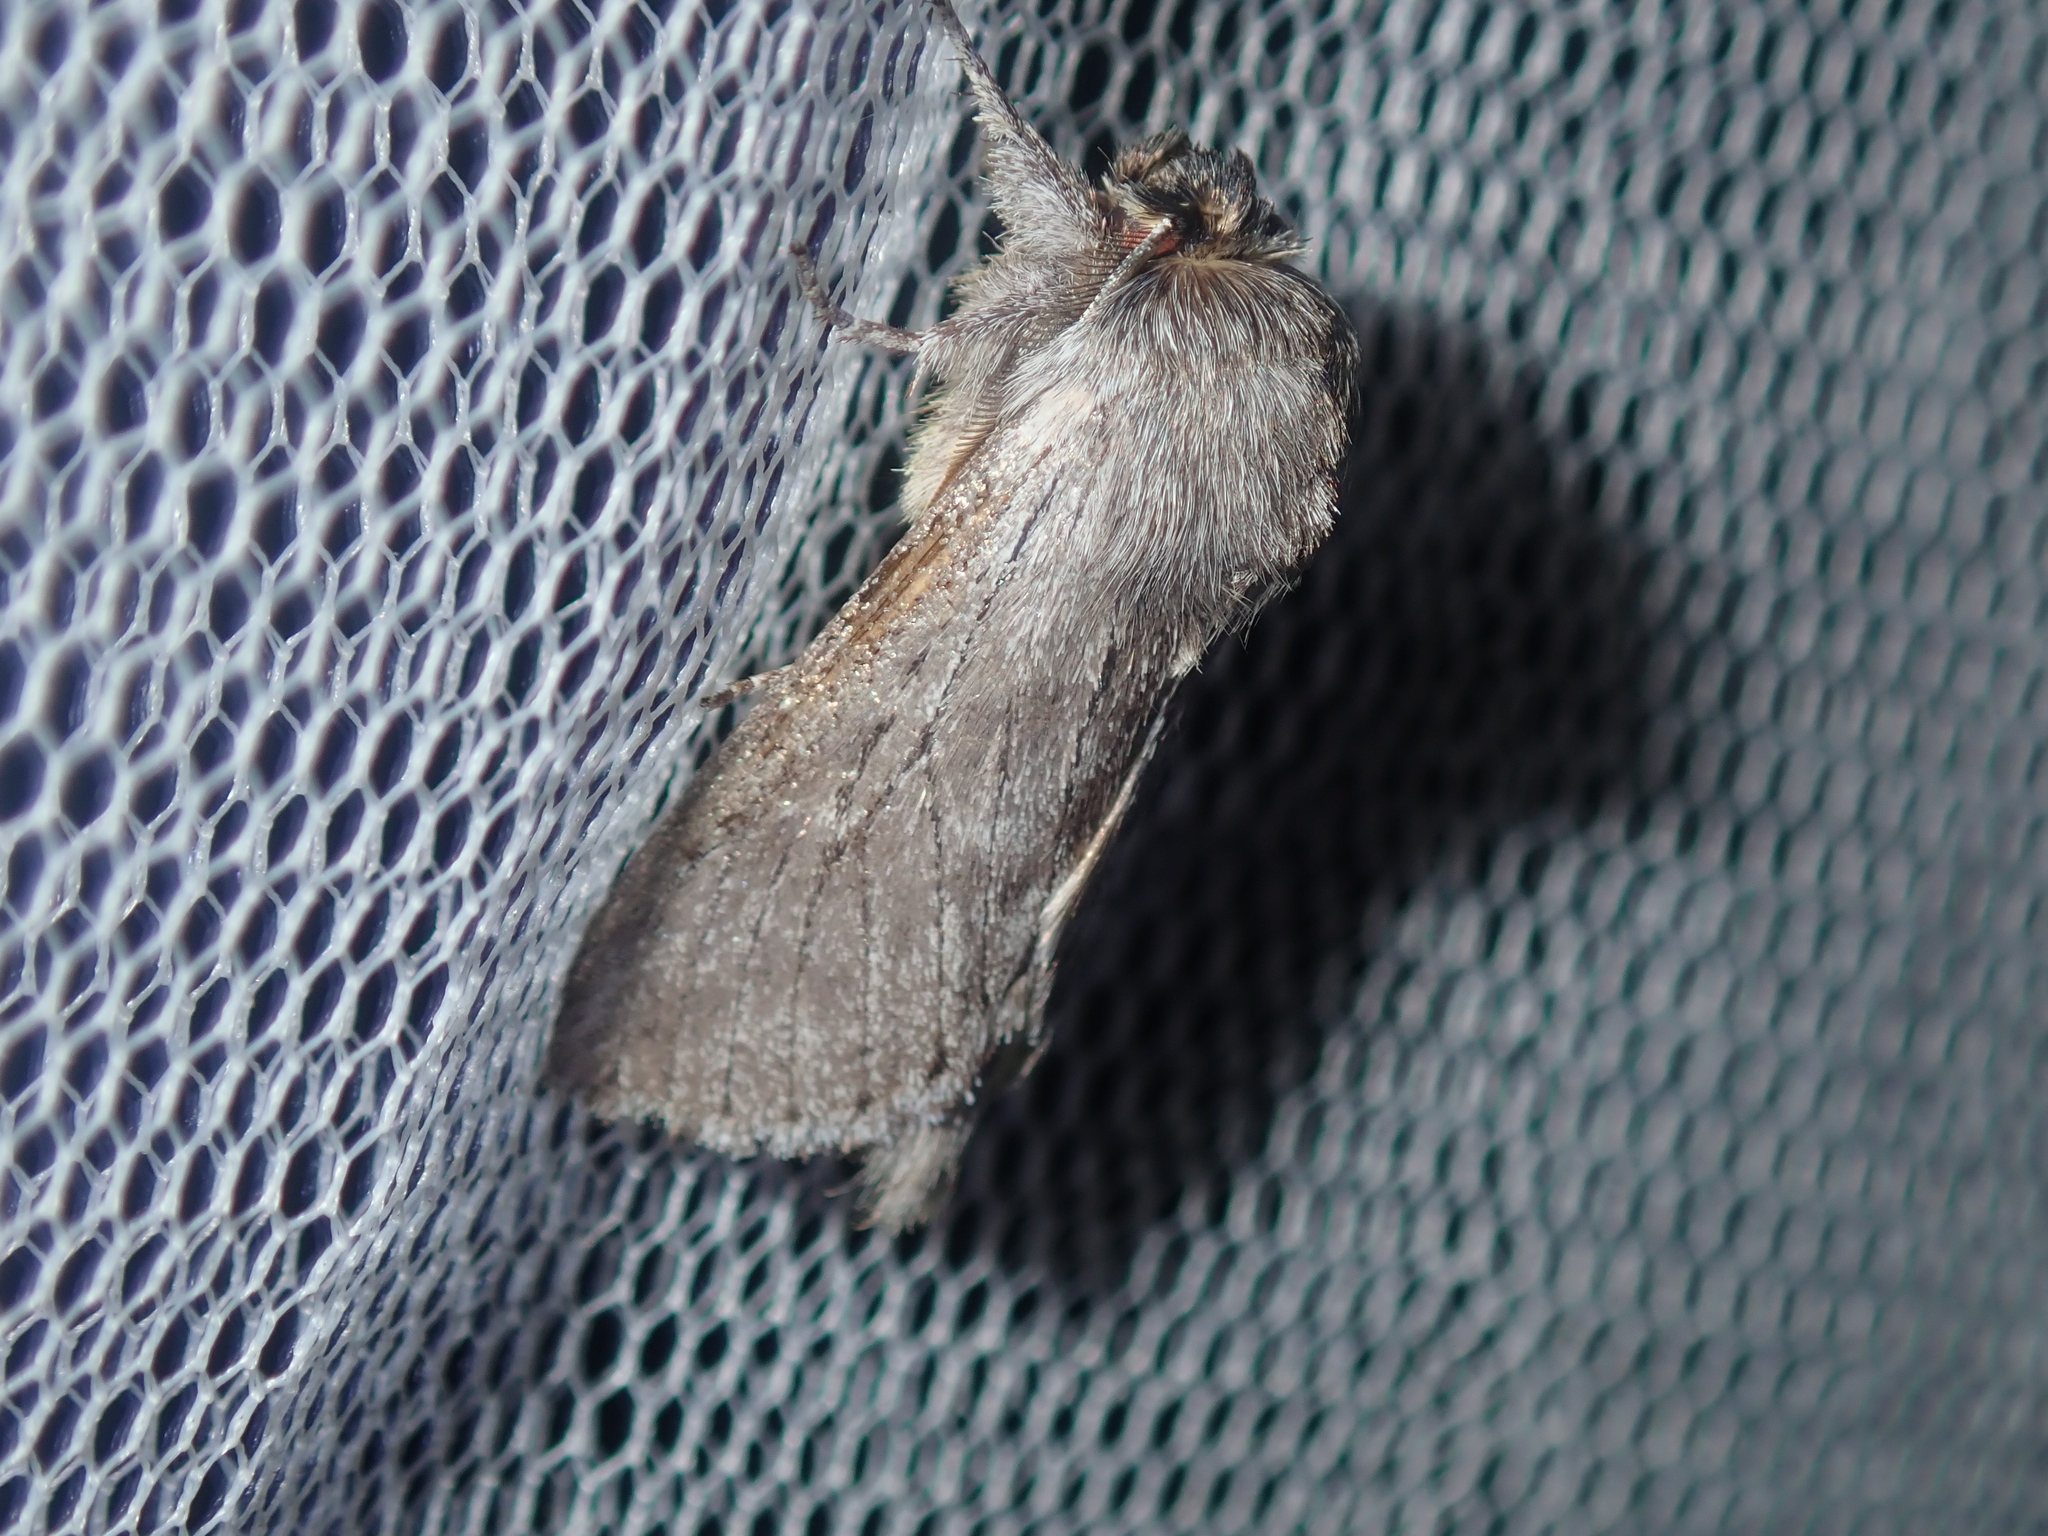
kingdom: Animalia
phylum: Arthropoda
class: Insecta
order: Lepidoptera
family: Notodontidae
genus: Antimima
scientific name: Antimima cryptica
